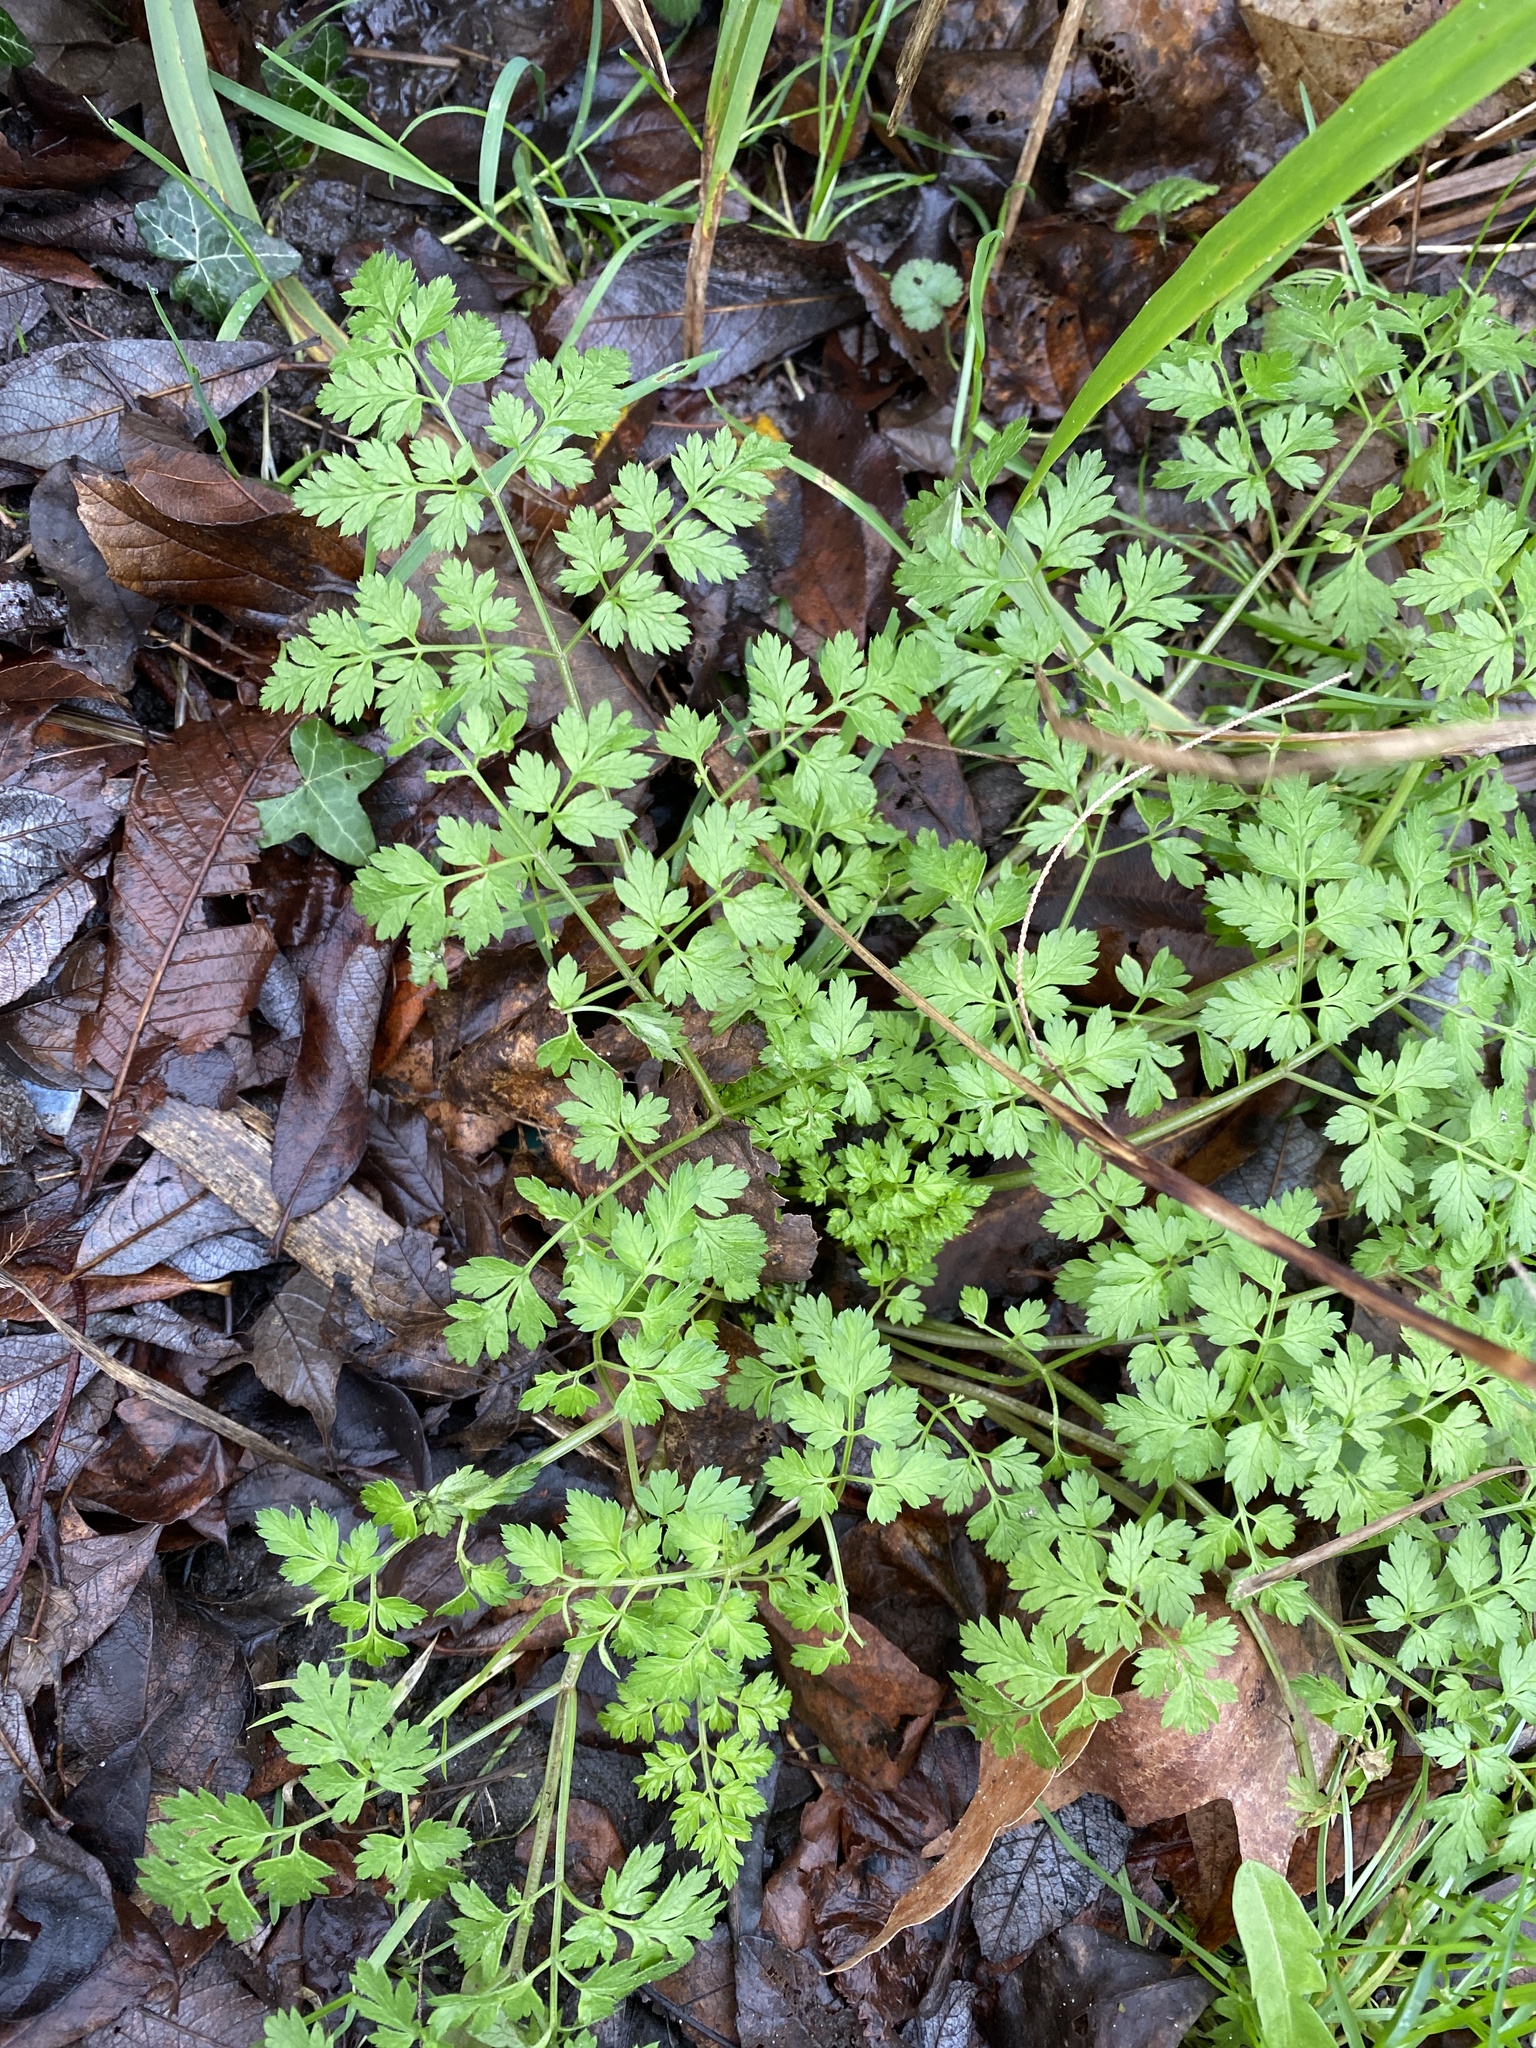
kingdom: Plantae
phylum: Tracheophyta
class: Magnoliopsida
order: Apiales
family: Apiaceae
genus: Anthriscus
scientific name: Anthriscus sylvestris
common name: Cow parsley
